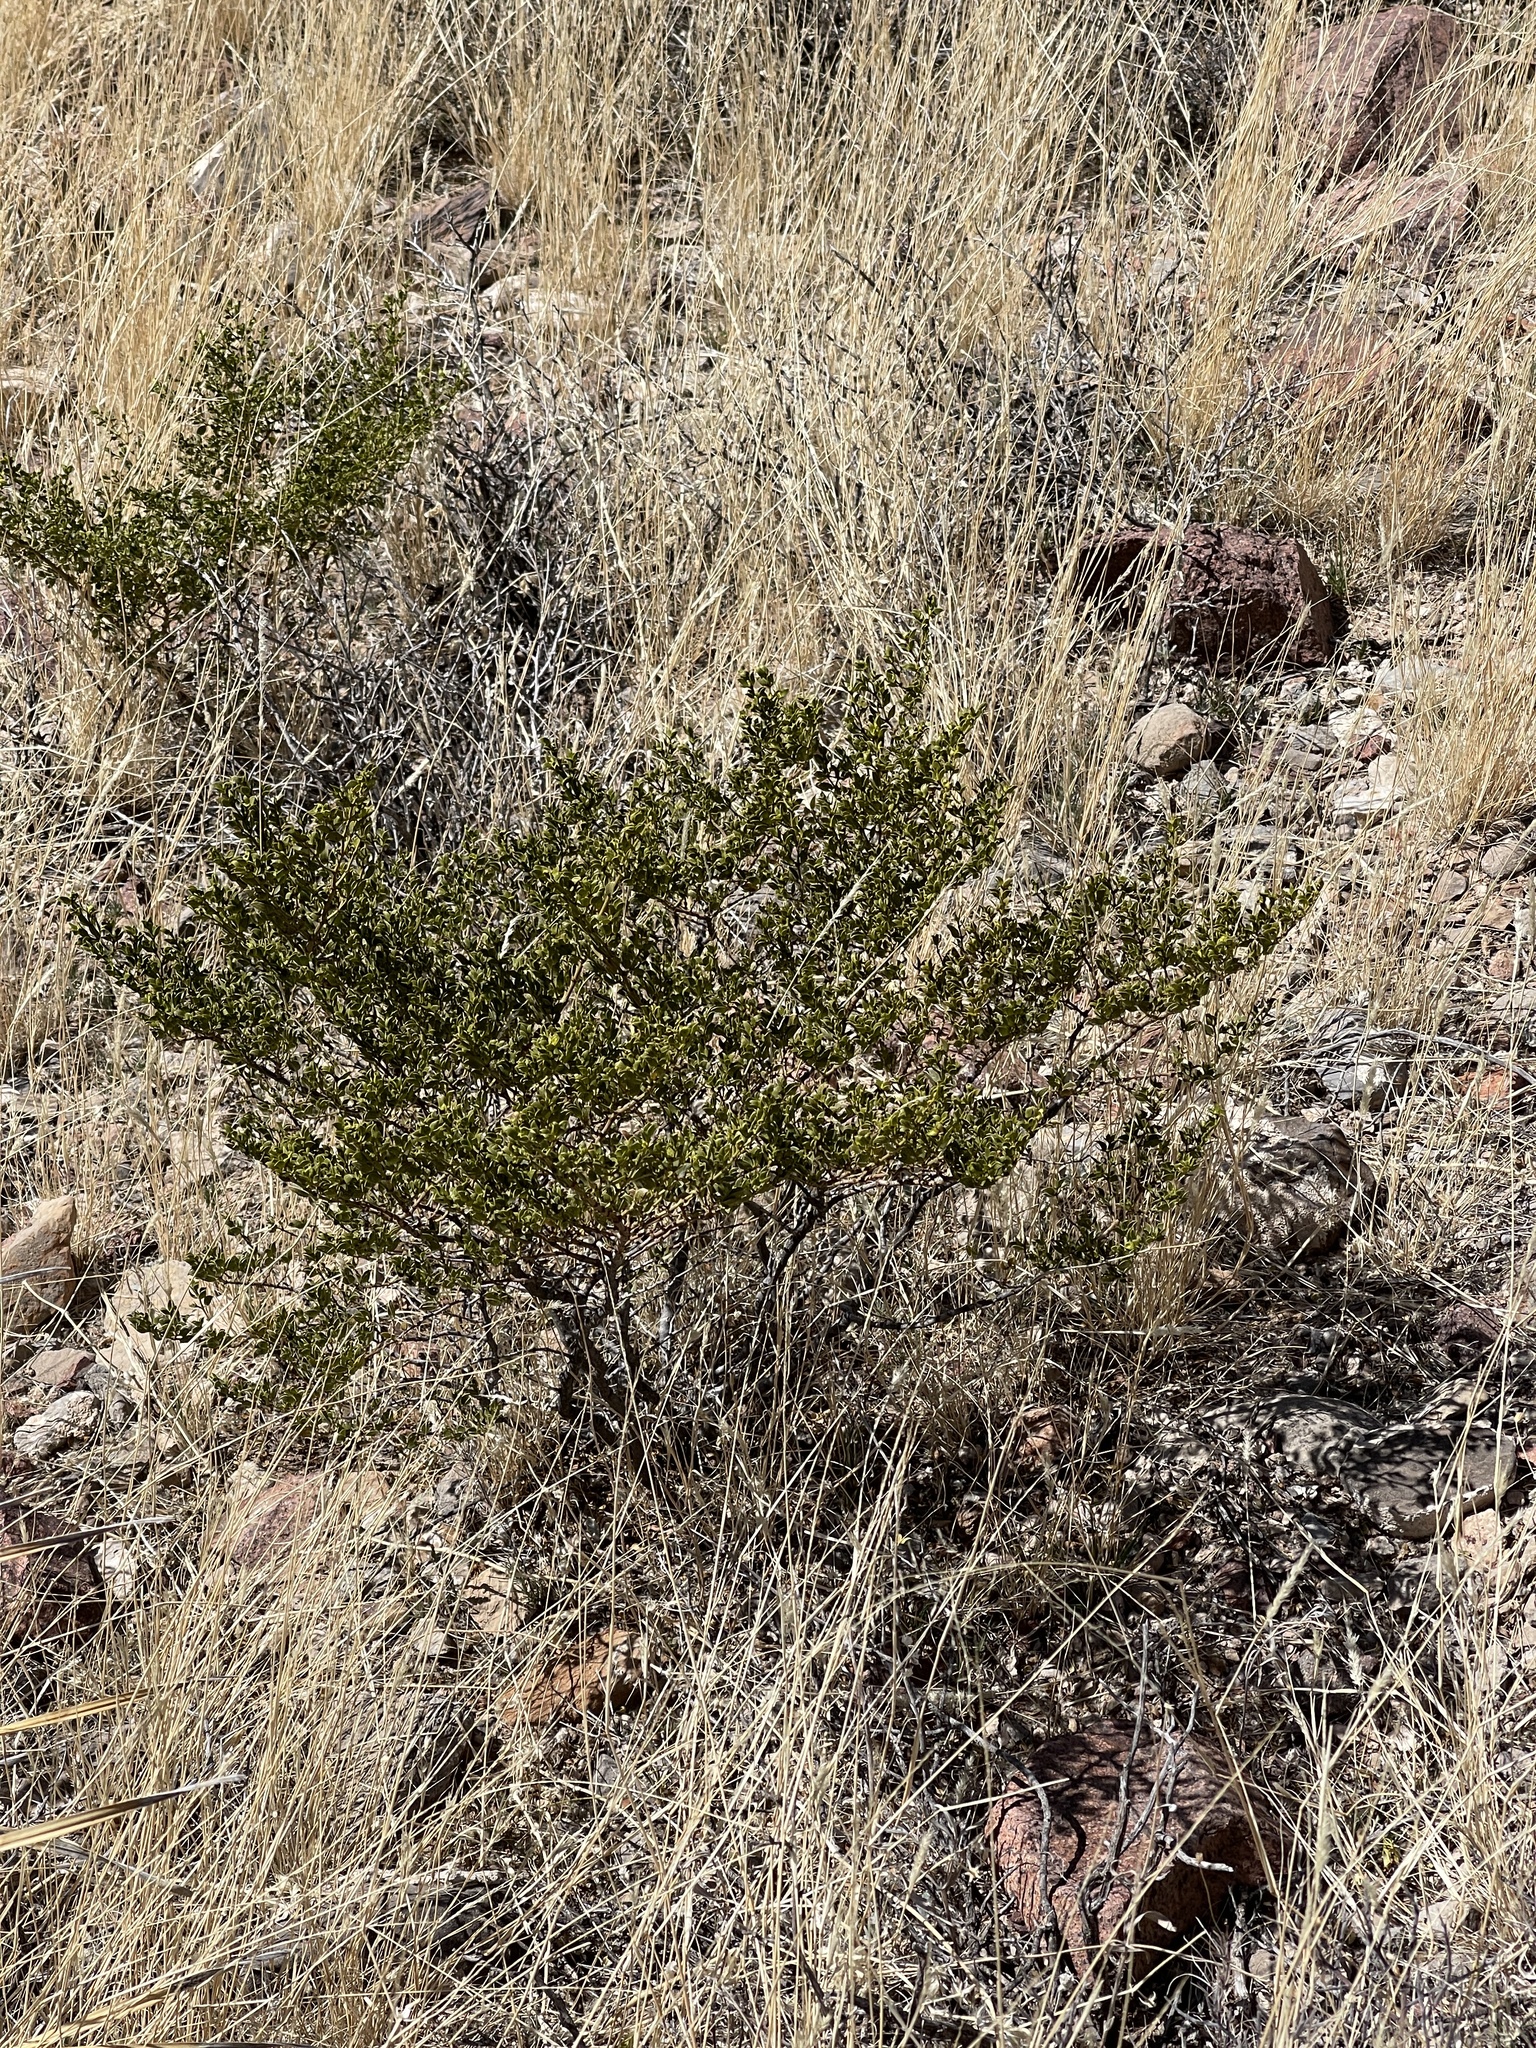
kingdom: Plantae
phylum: Tracheophyta
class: Magnoliopsida
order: Zygophyllales
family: Zygophyllaceae
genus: Larrea
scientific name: Larrea tridentata
